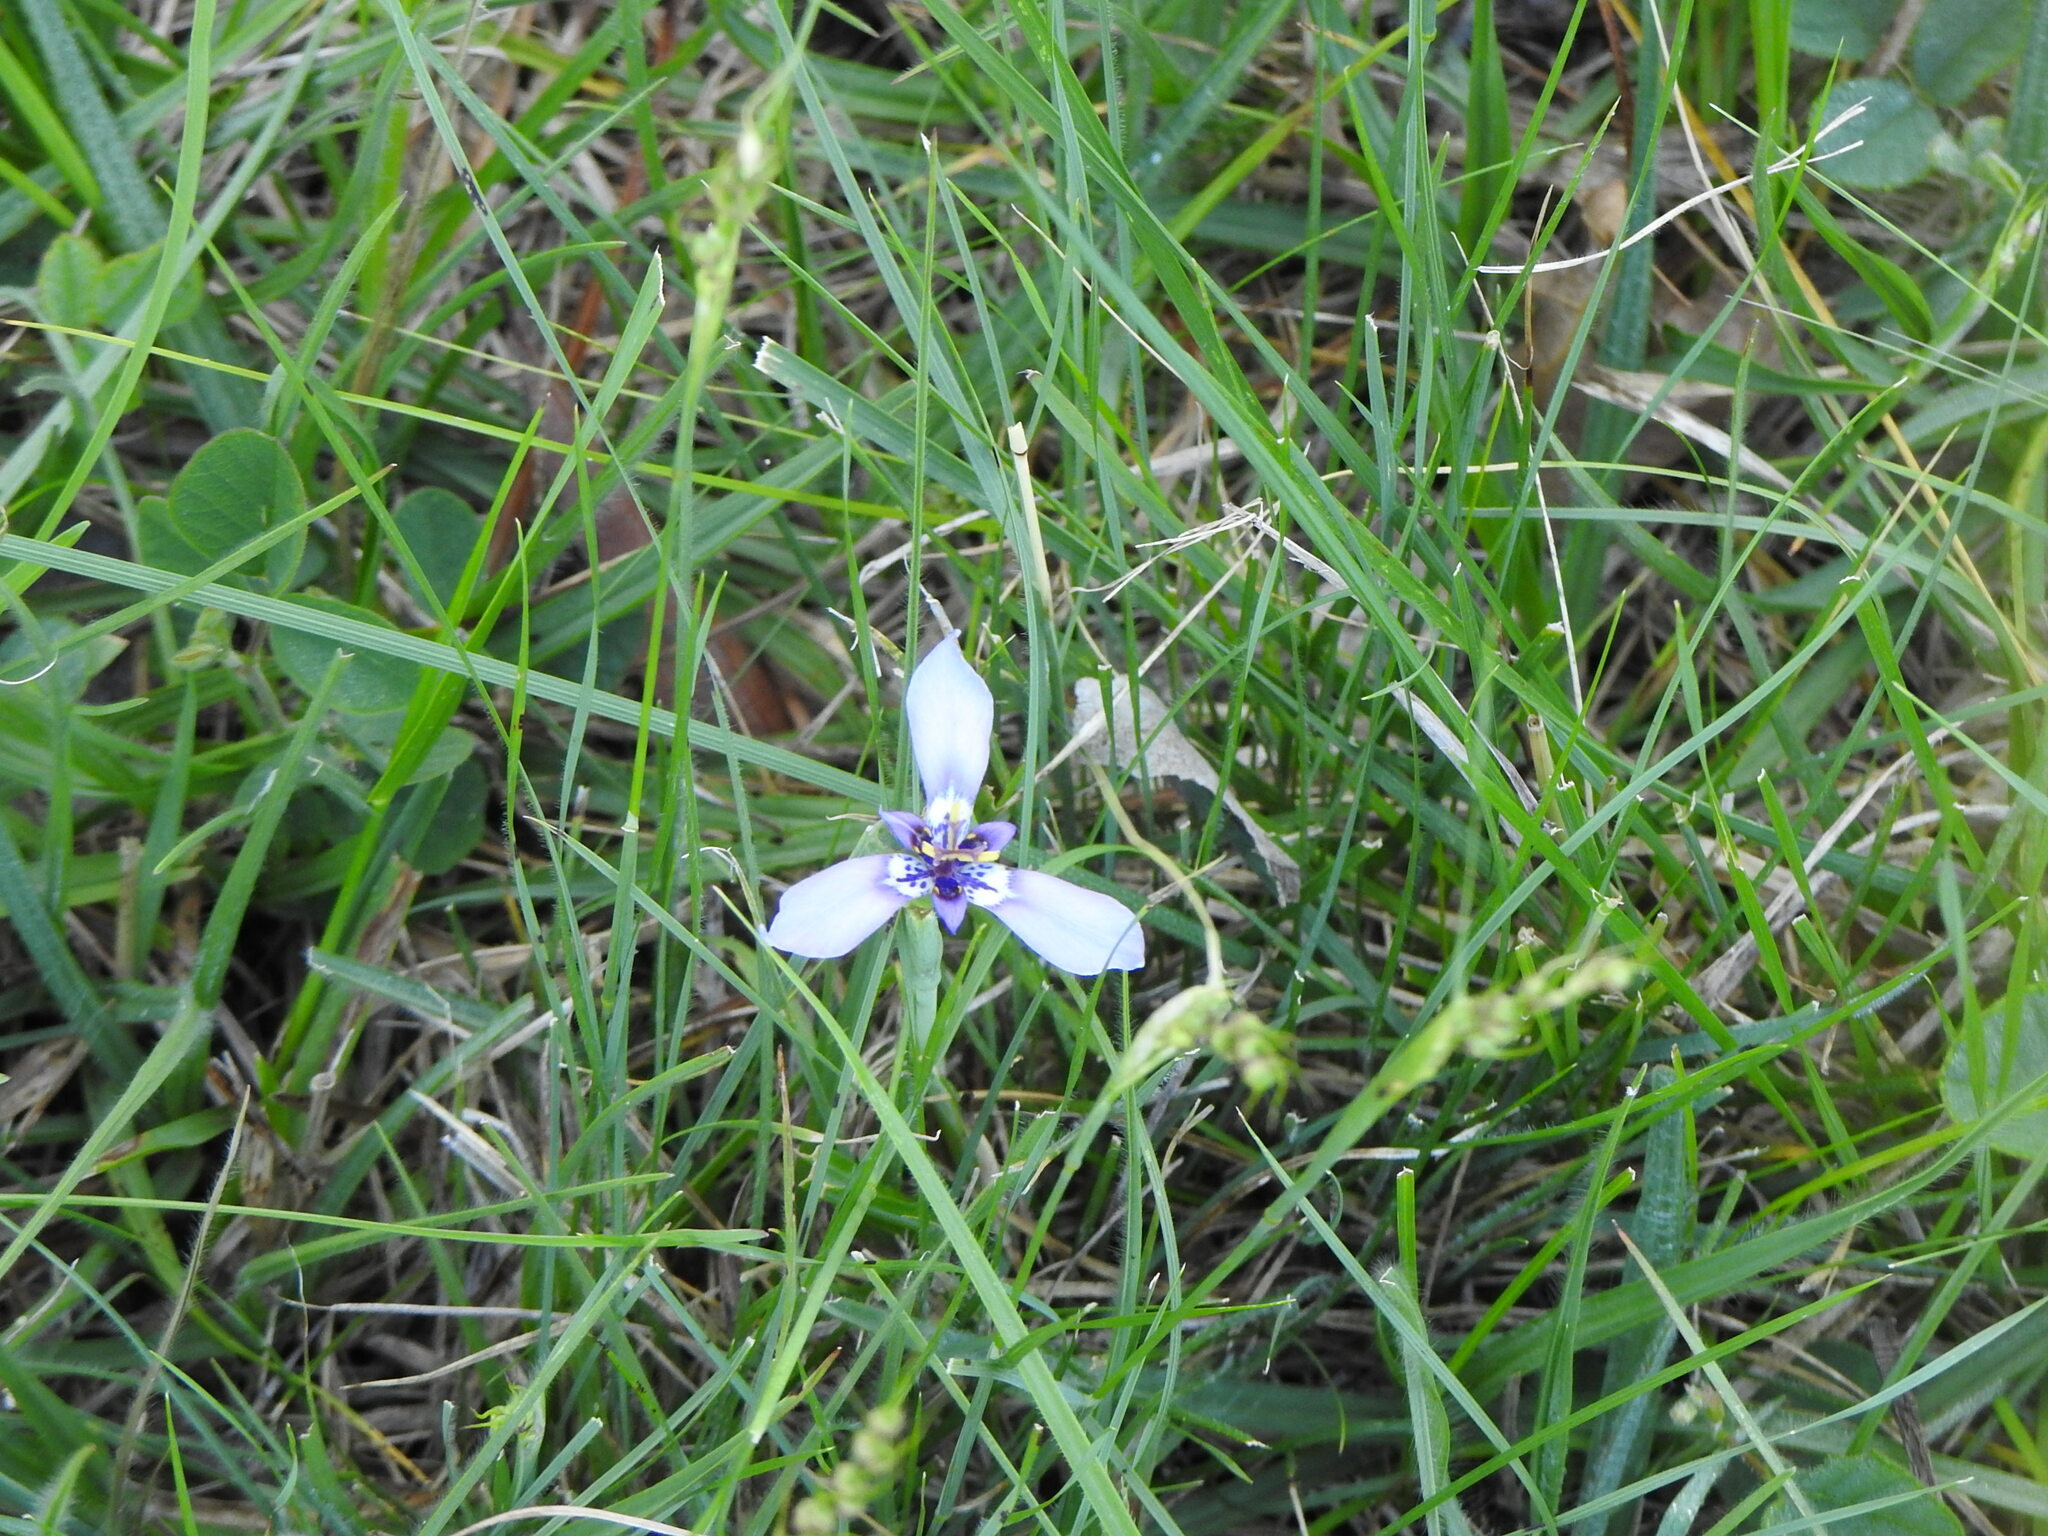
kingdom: Plantae
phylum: Tracheophyta
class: Liliopsida
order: Asparagales
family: Iridaceae
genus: Herbertia
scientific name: Herbertia lahue
